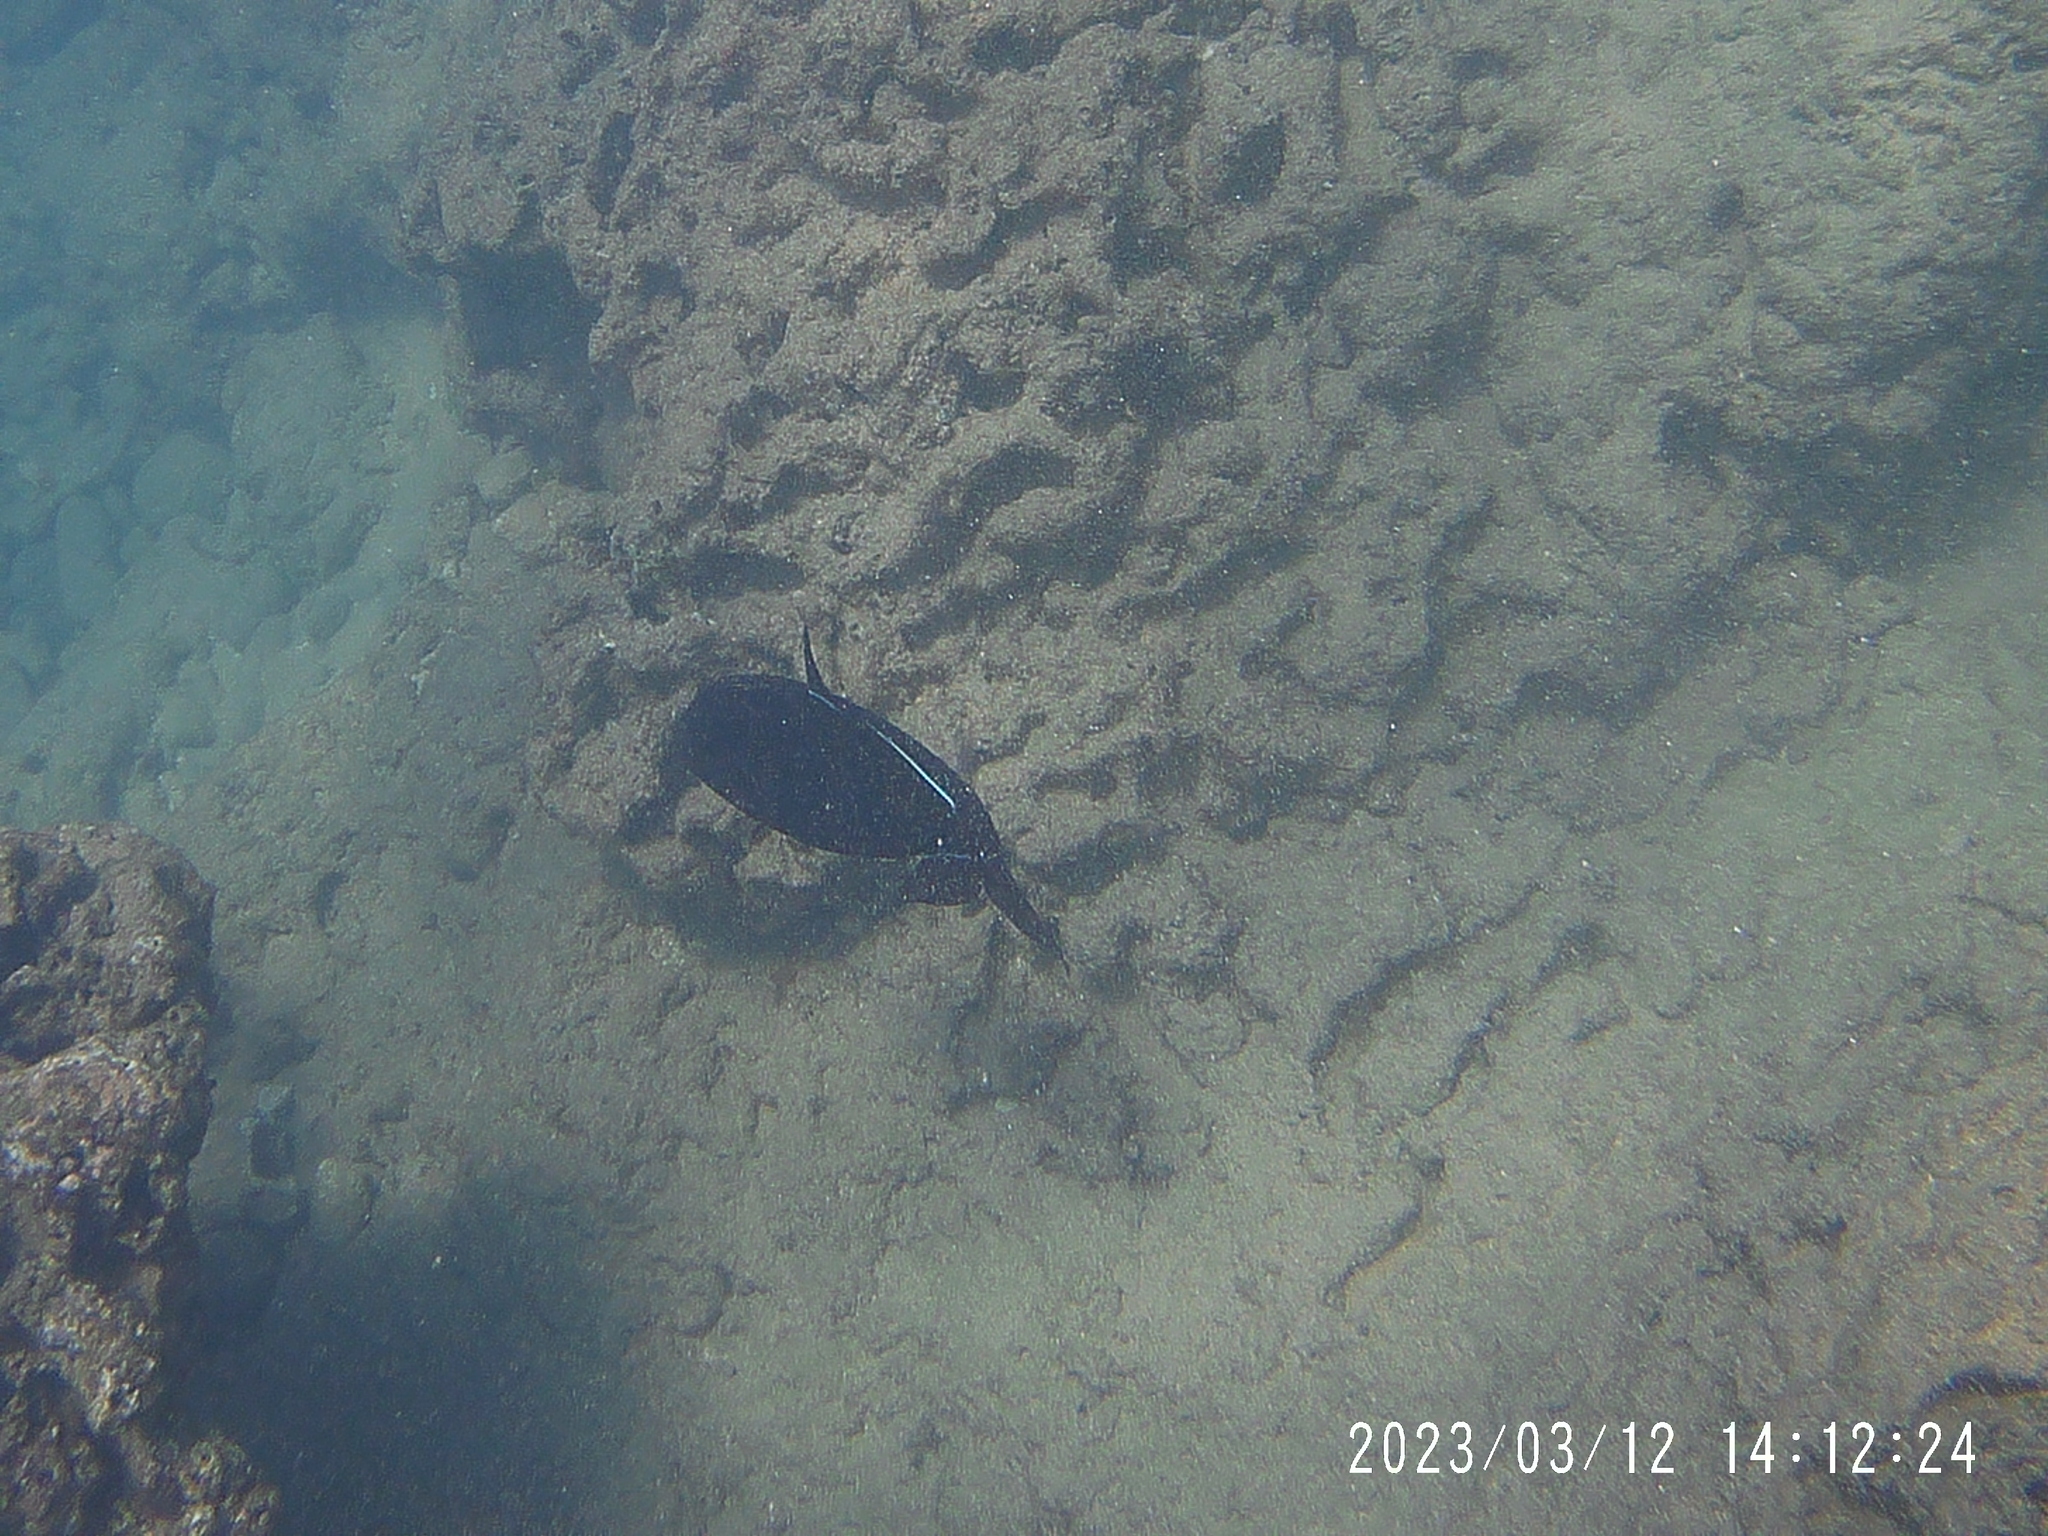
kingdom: Animalia
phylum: Chordata
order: Tetraodontiformes
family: Balistidae
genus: Melichthys
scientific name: Melichthys niger
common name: Black durgon
